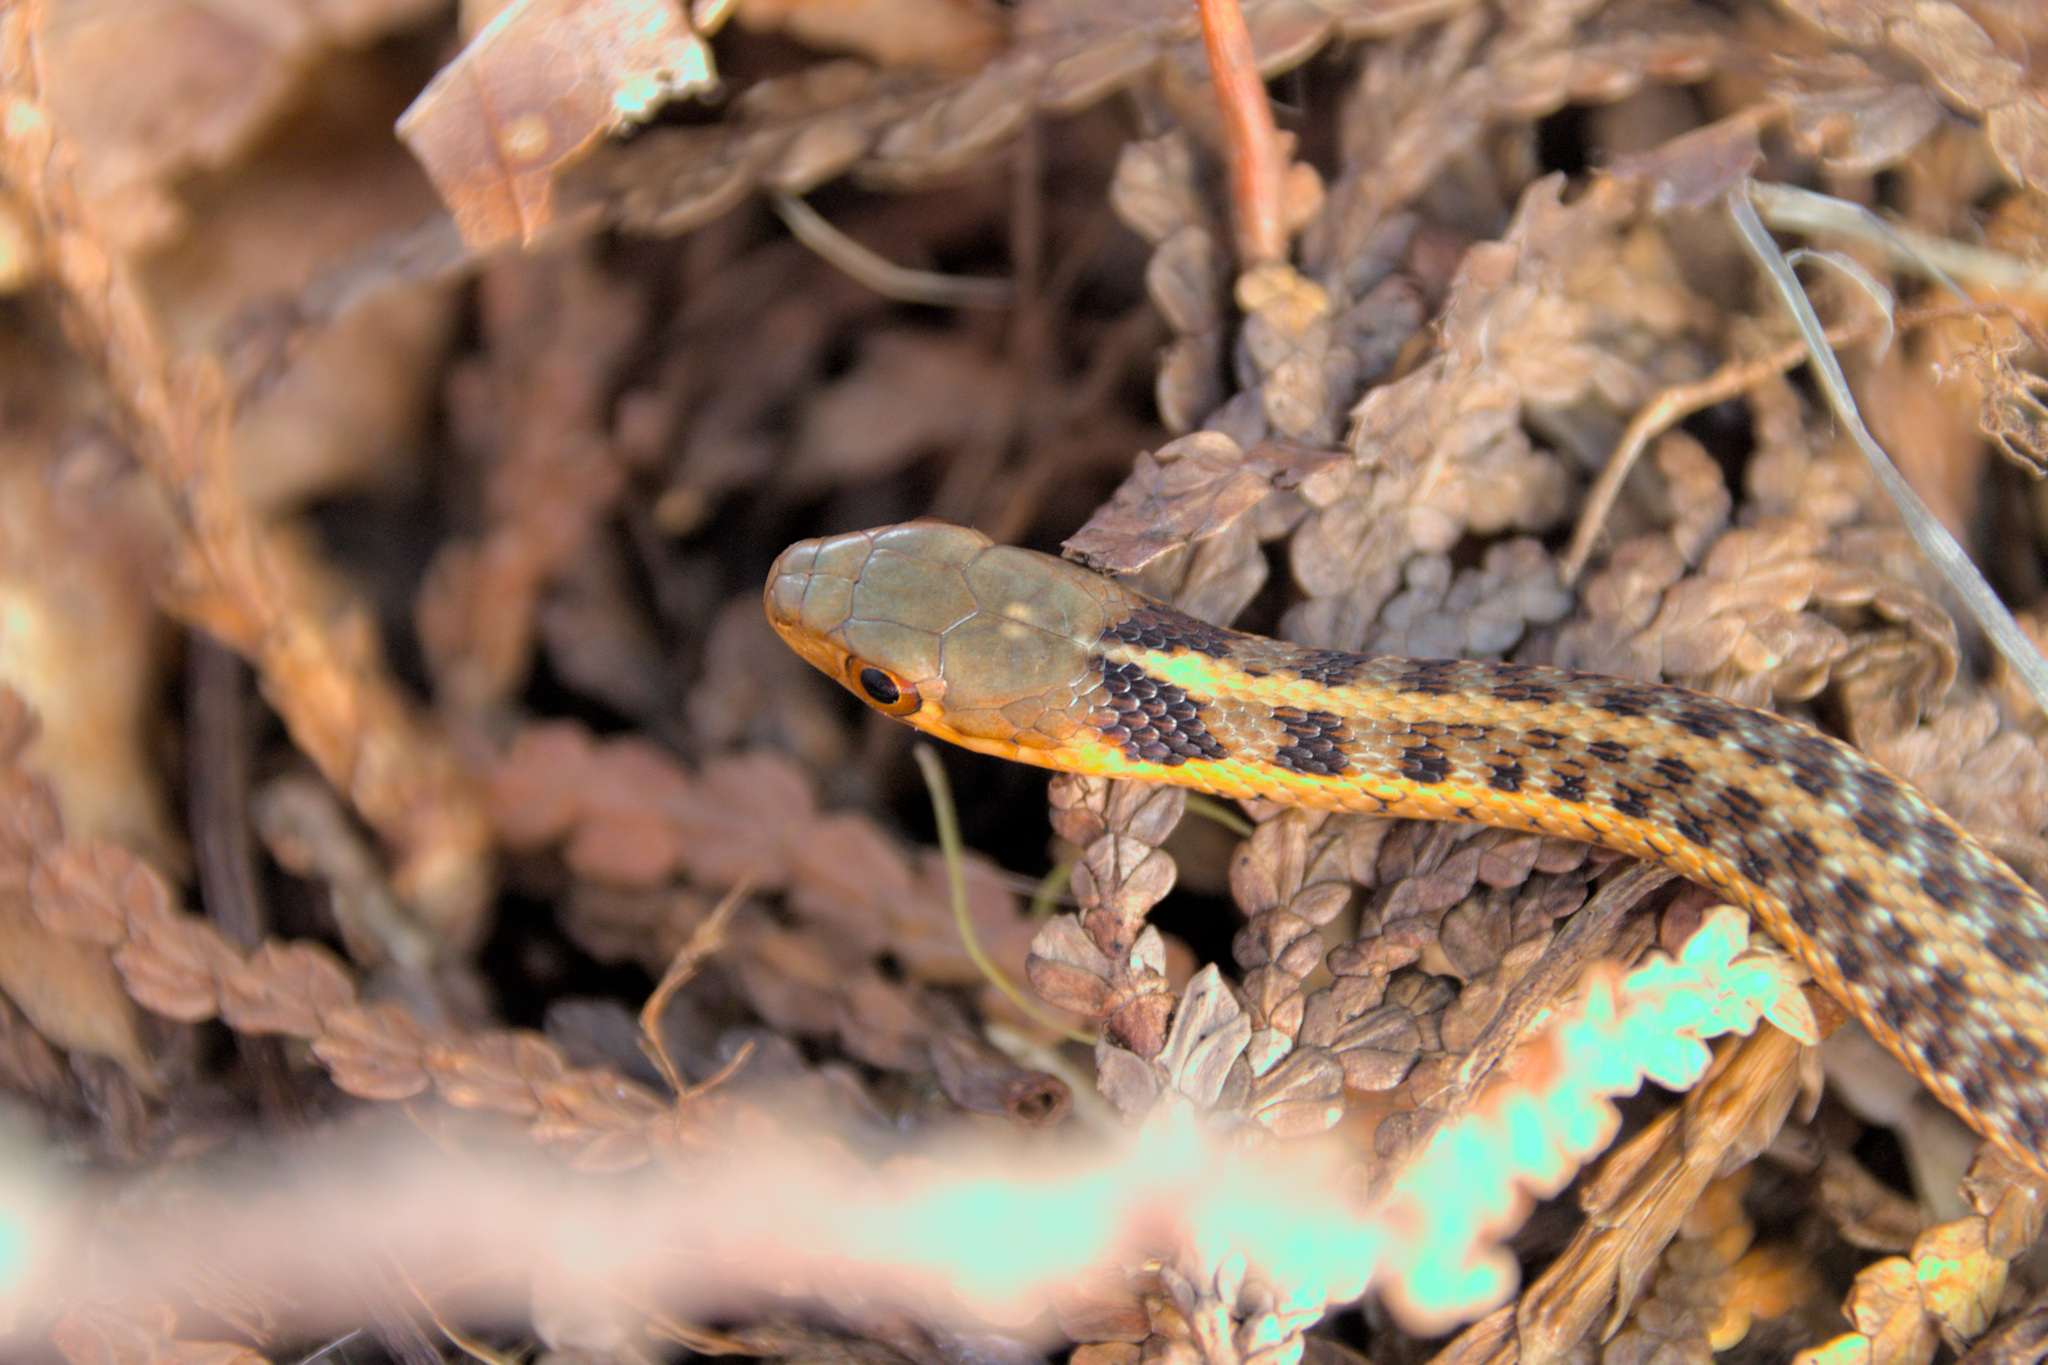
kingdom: Animalia
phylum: Chordata
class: Squamata
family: Colubridae
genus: Thamnophis
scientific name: Thamnophis sirtalis
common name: Common garter snake
